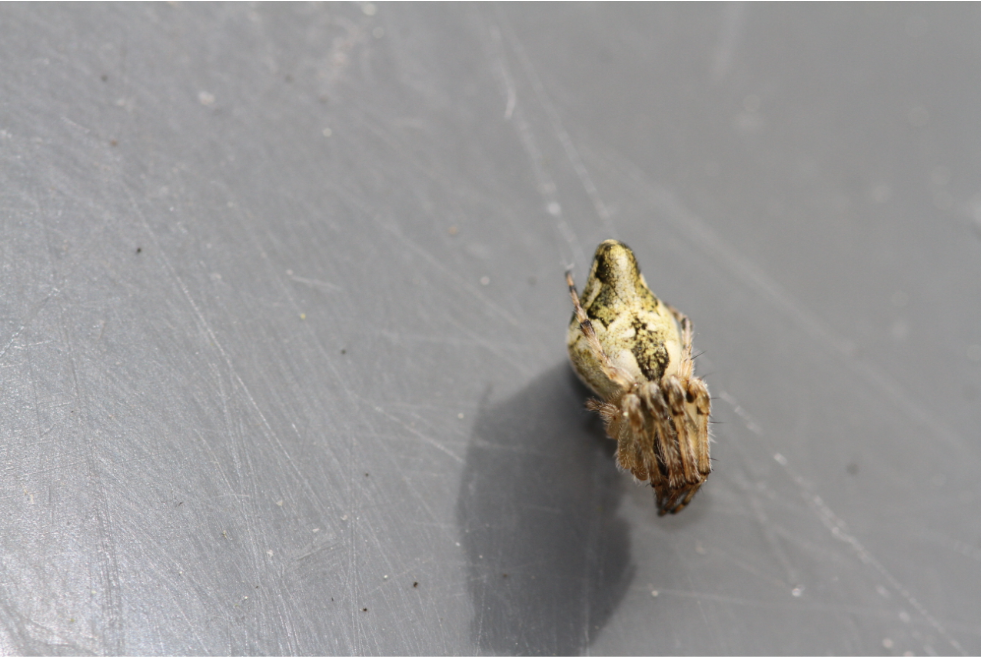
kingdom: Animalia
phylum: Arthropoda
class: Arachnida
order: Araneae
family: Araneidae
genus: Cyclosa
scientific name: Cyclosa
